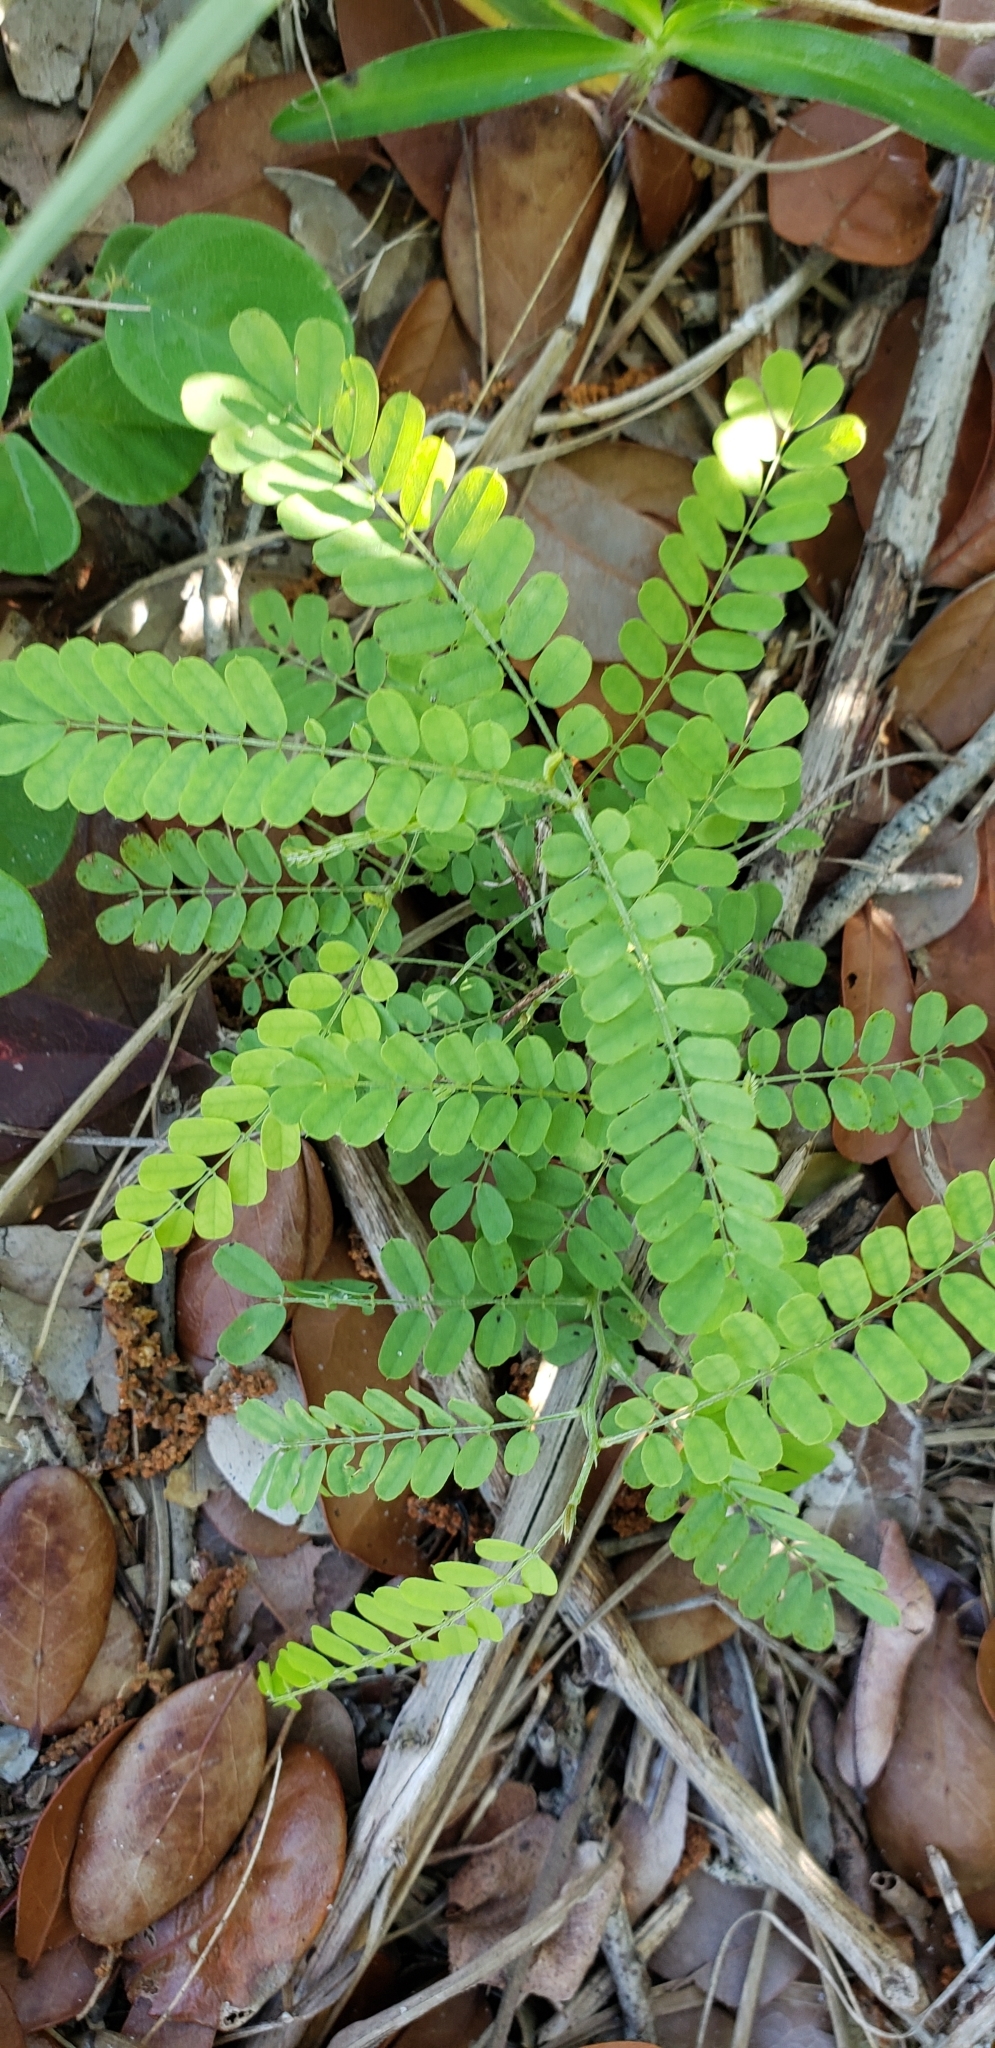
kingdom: Plantae
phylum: Tracheophyta
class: Magnoliopsida
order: Fabales
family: Fabaceae
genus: Abrus
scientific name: Abrus precatorius
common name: Rosarypea
